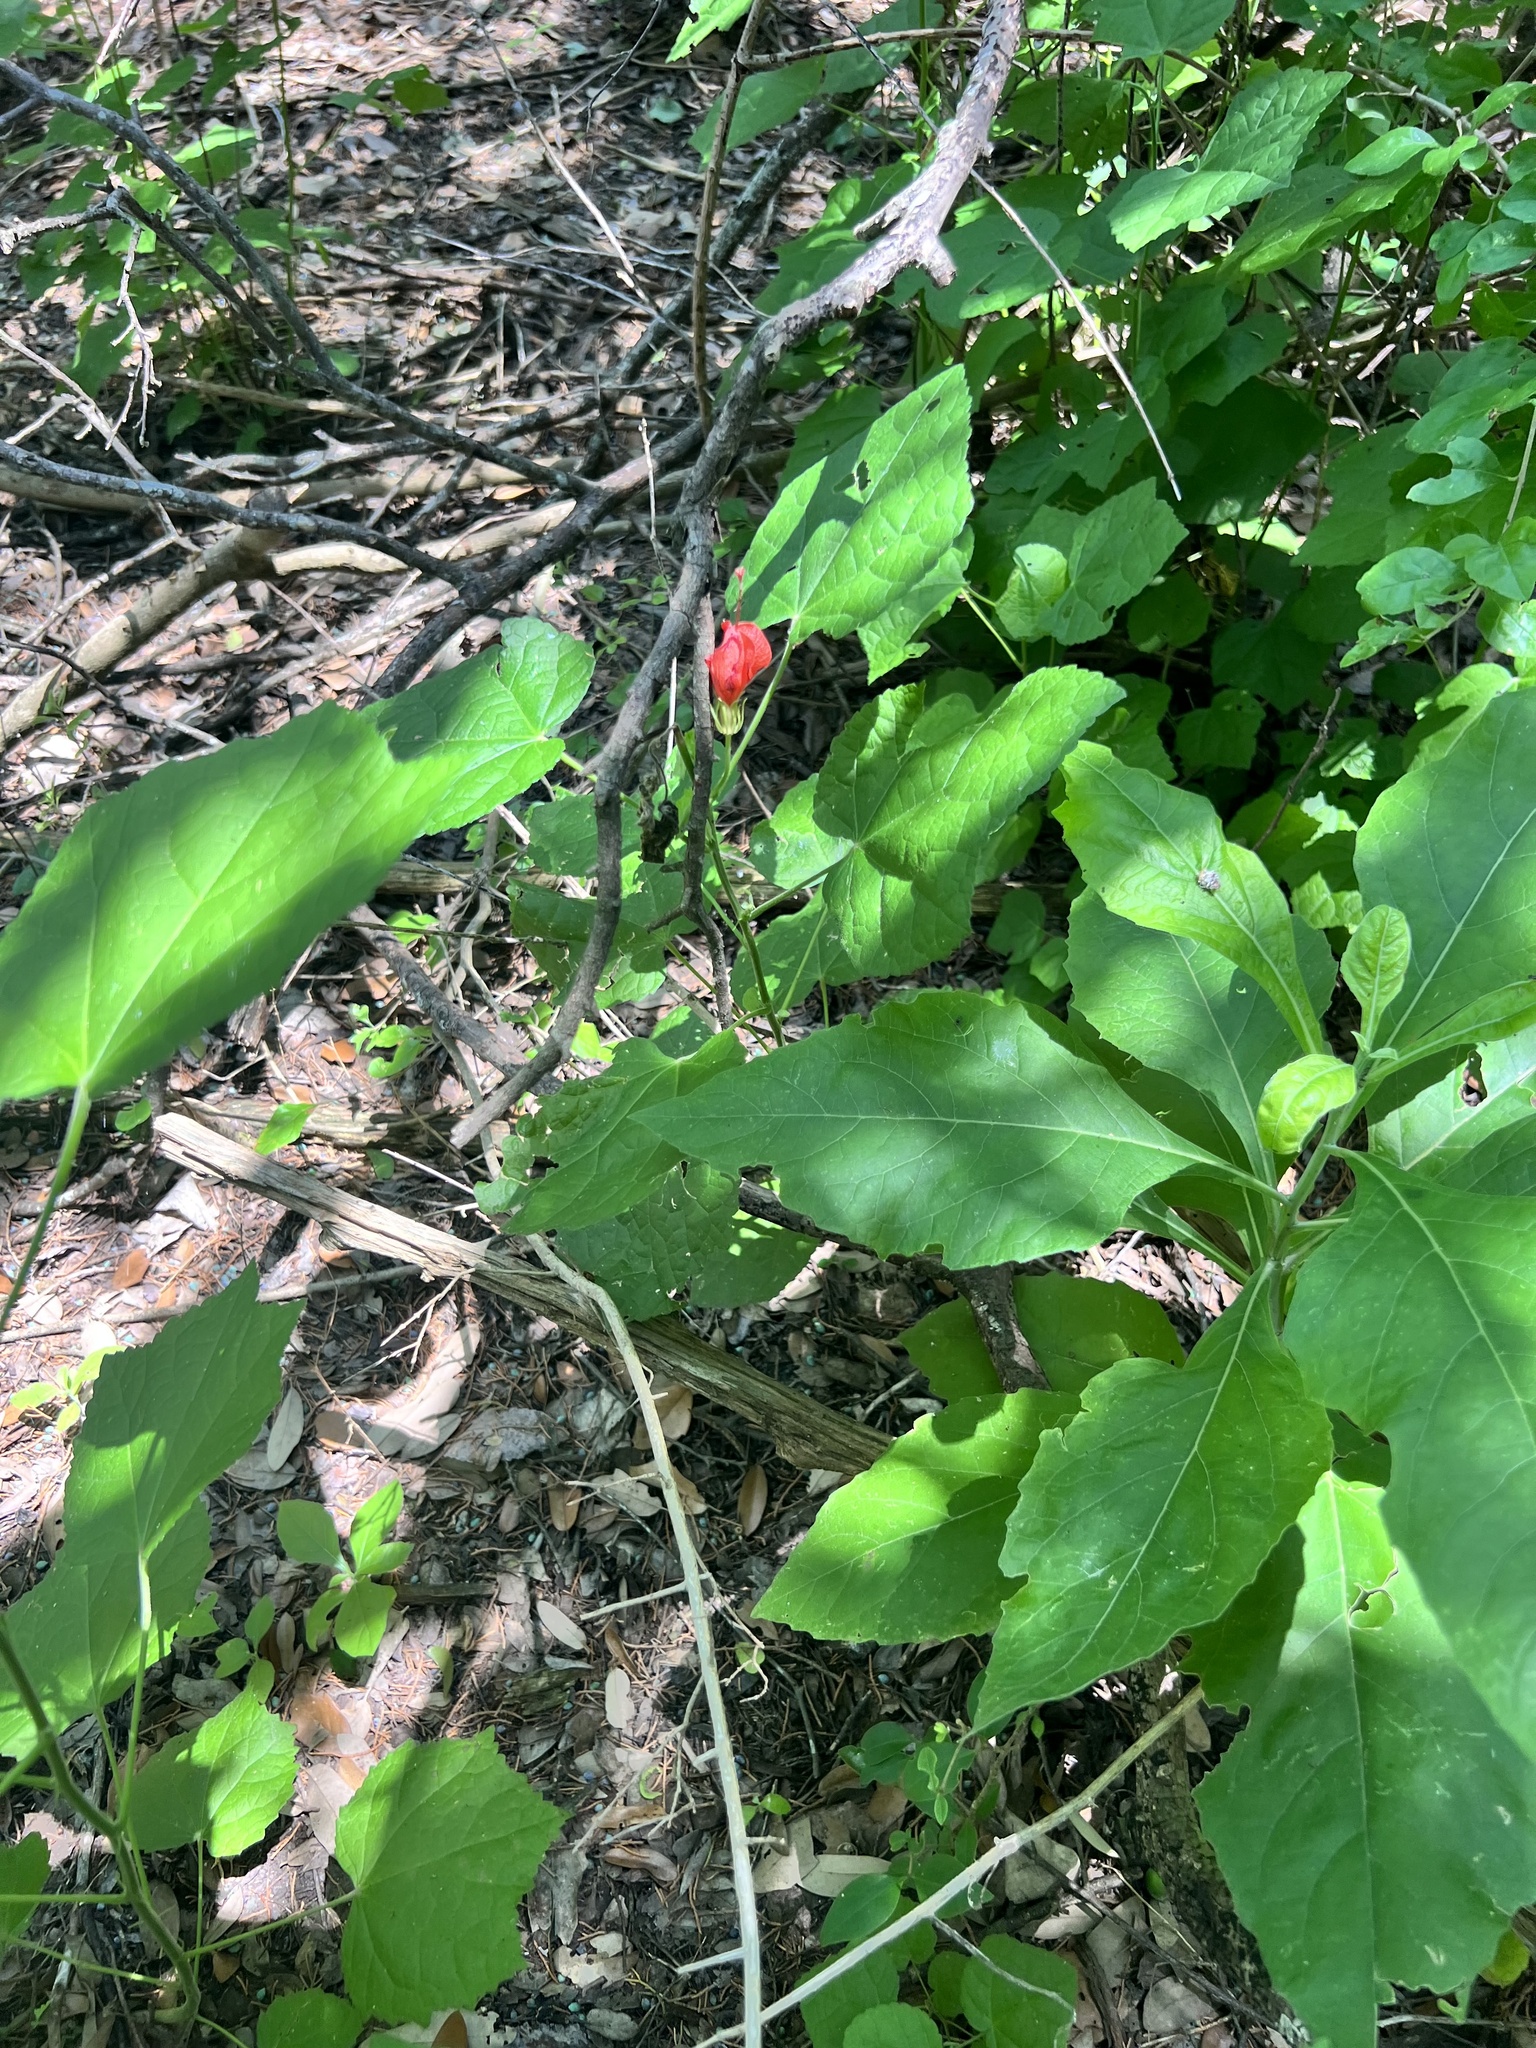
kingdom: Plantae
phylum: Tracheophyta
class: Magnoliopsida
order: Malvales
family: Malvaceae
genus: Malvaviscus
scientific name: Malvaviscus arboreus
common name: Wax mallow
